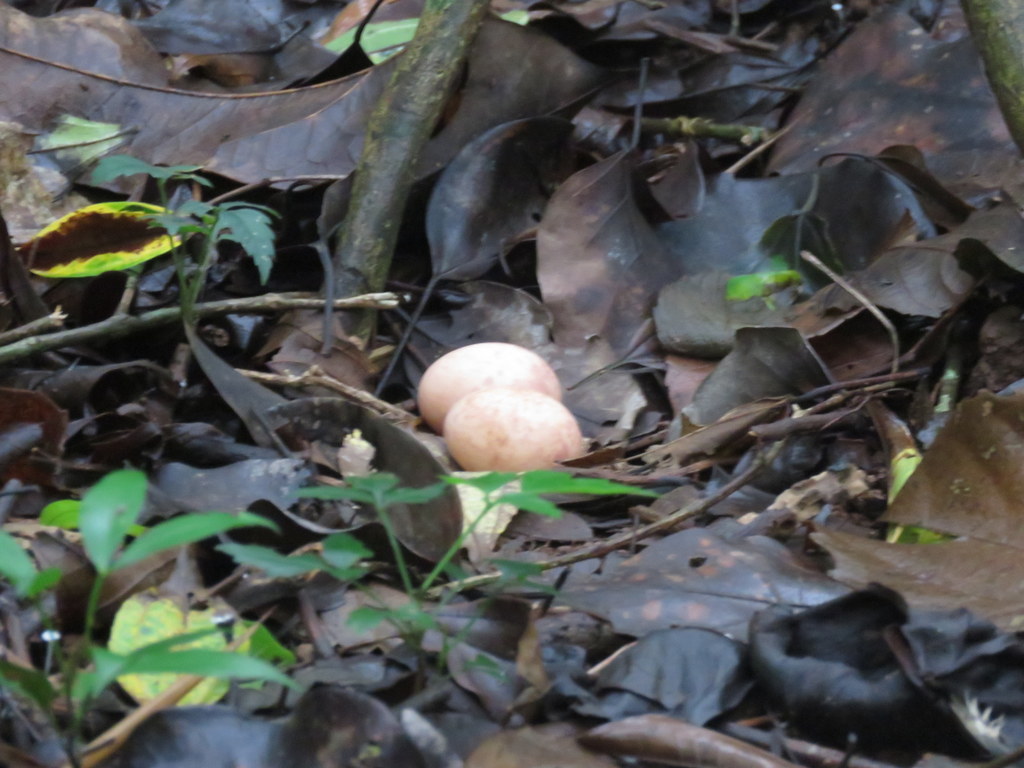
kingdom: Animalia
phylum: Chordata
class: Aves
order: Caprimulgiformes
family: Caprimulgidae
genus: Nyctidromus
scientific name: Nyctidromus albicollis
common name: Pauraque
